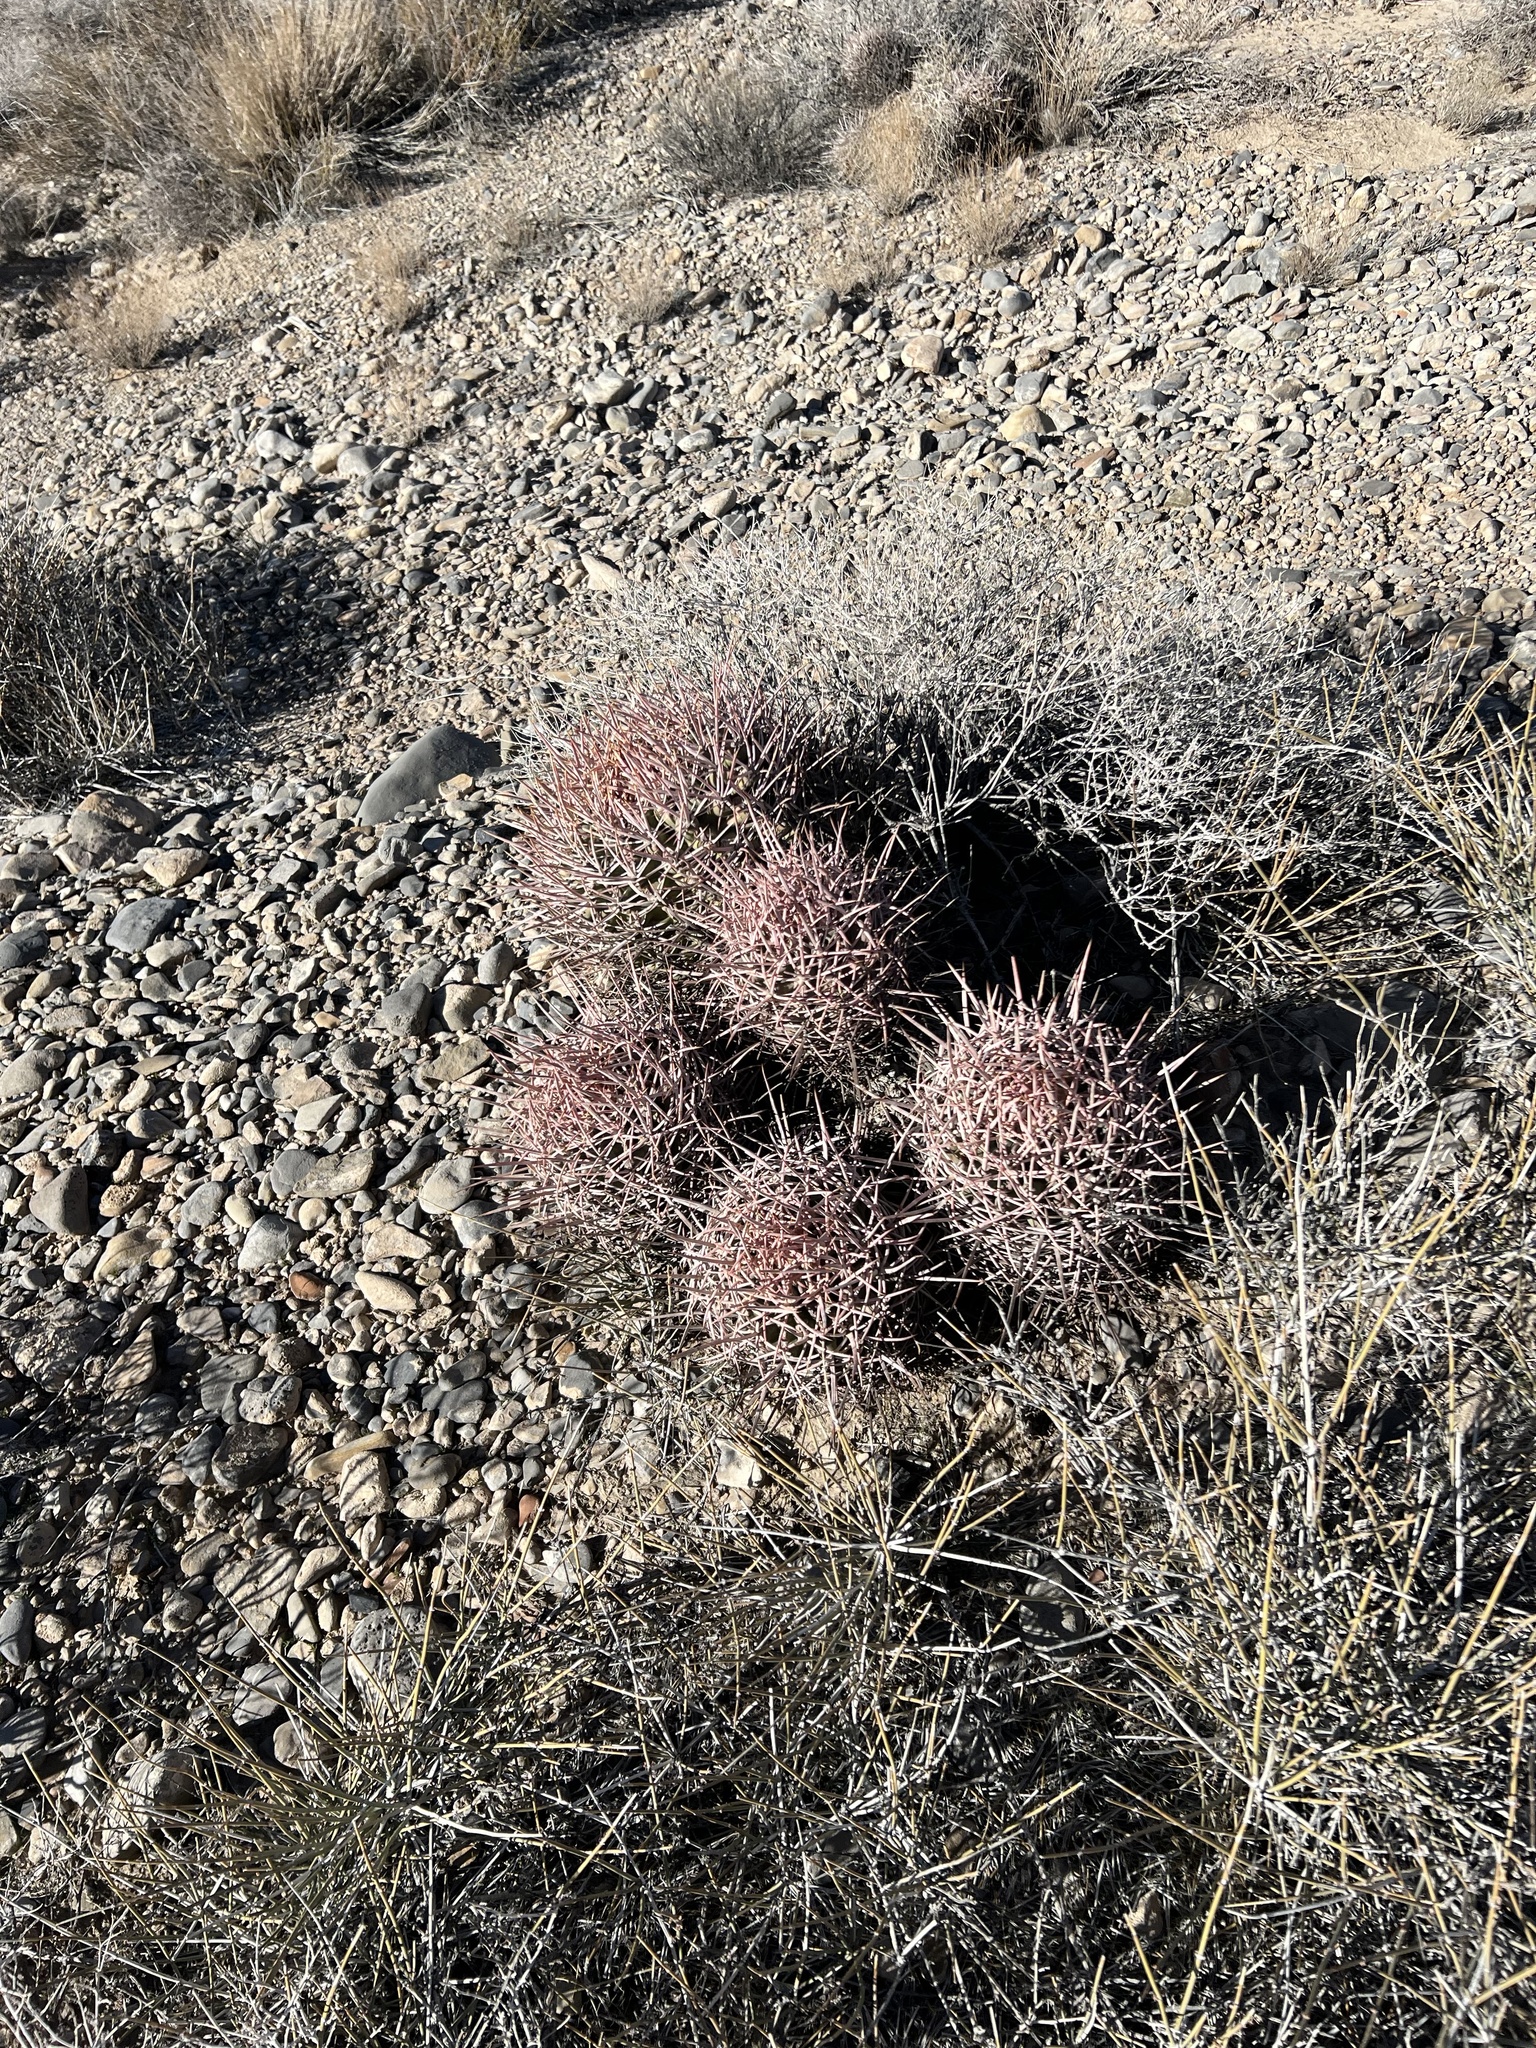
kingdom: Plantae
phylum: Tracheophyta
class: Magnoliopsida
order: Caryophyllales
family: Cactaceae
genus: Echinocactus
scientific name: Echinocactus polycephalus
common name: Cottontop cactus
